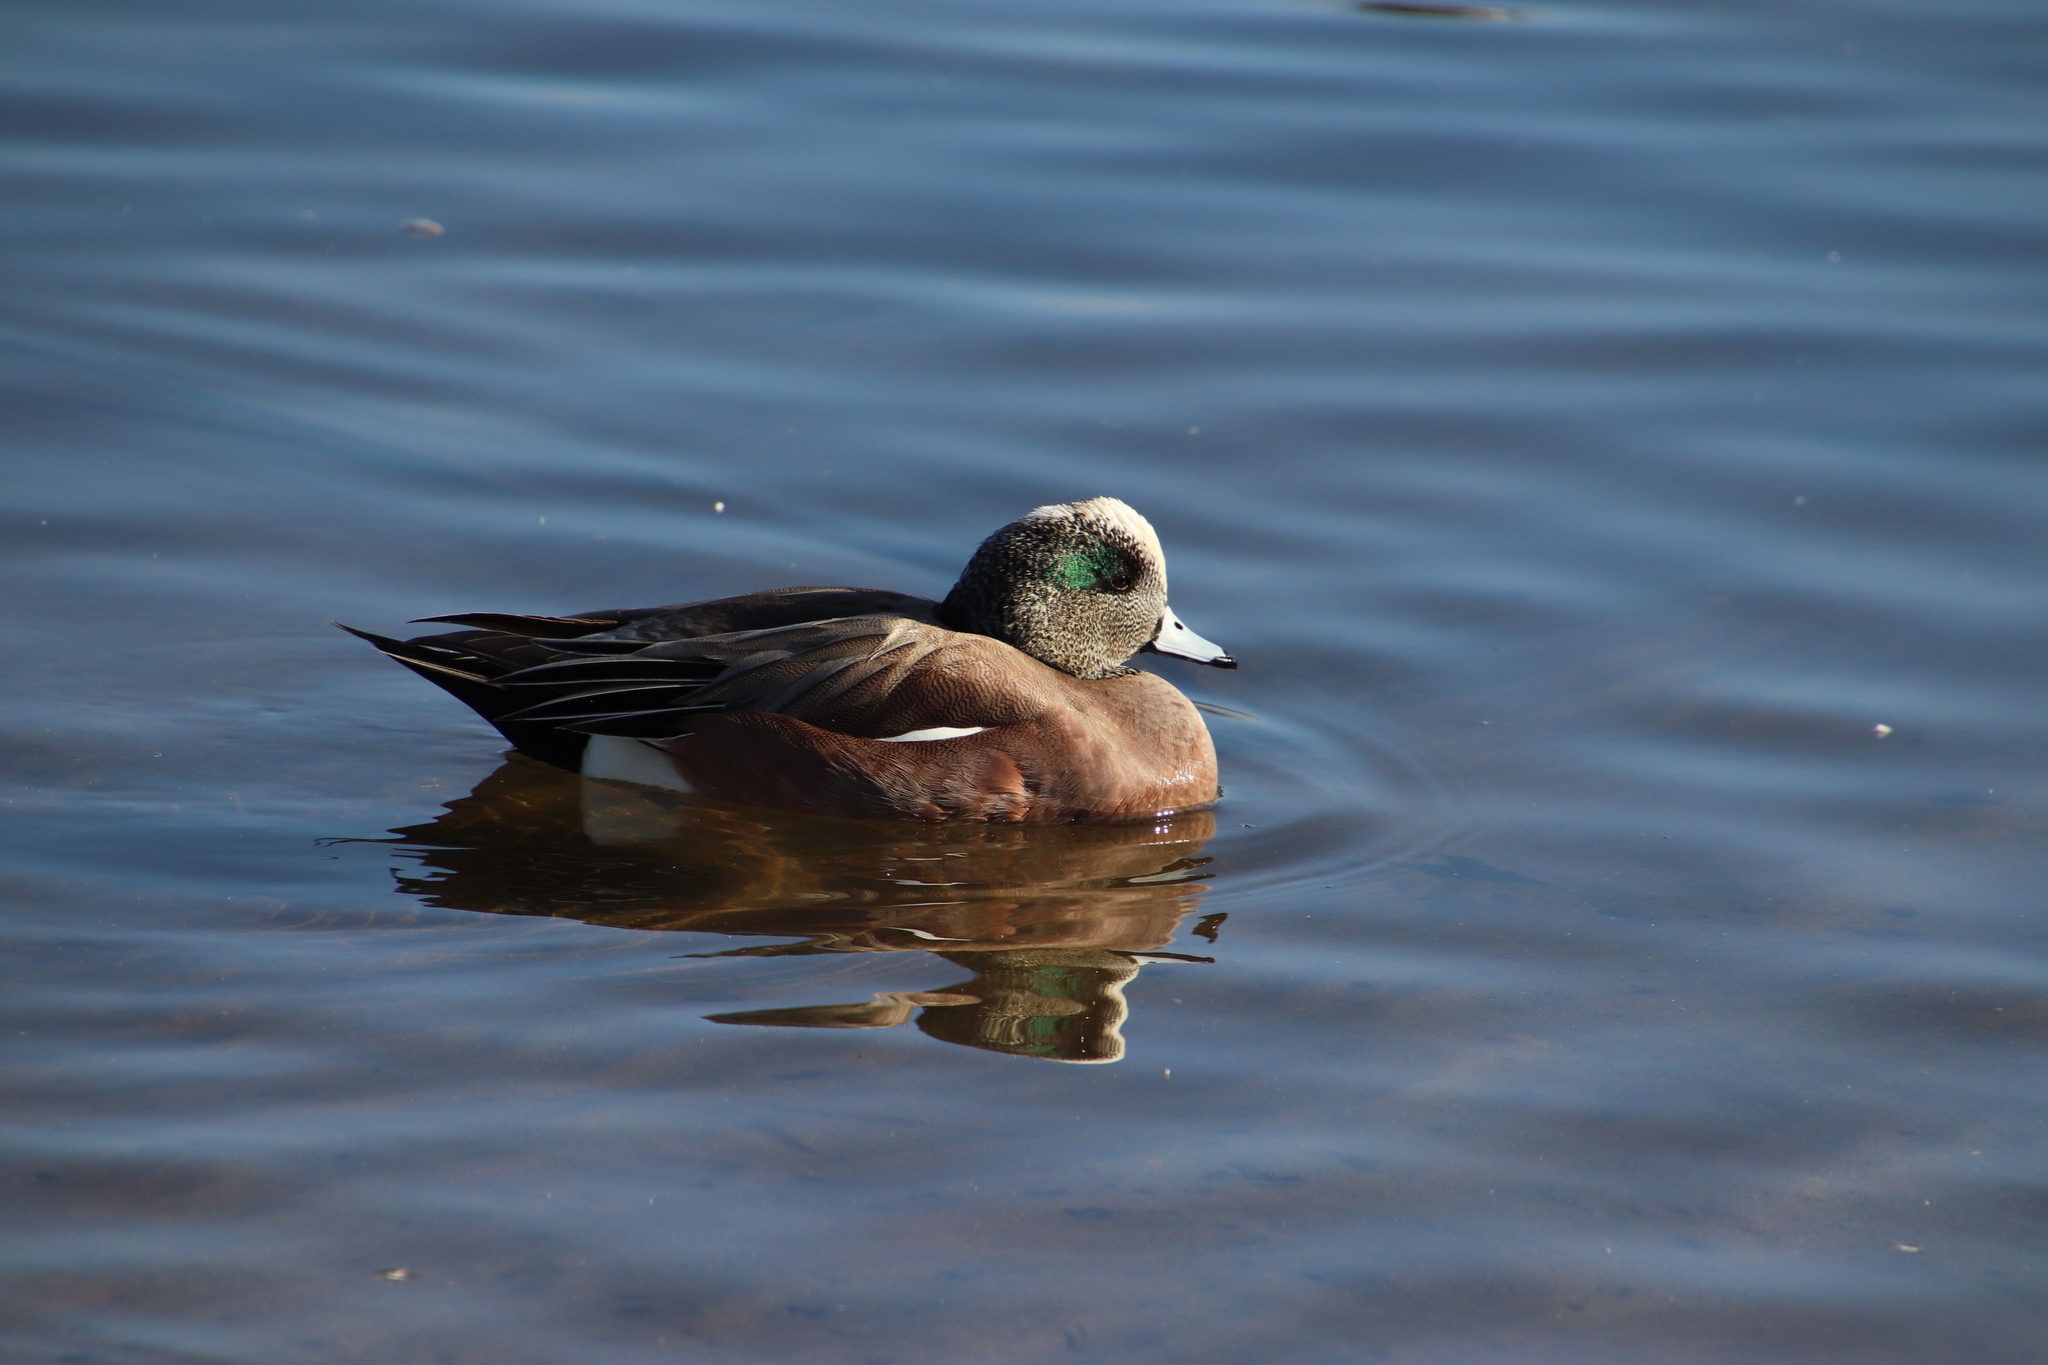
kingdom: Animalia
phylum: Chordata
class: Aves
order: Anseriformes
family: Anatidae
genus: Mareca
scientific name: Mareca americana
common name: American wigeon
